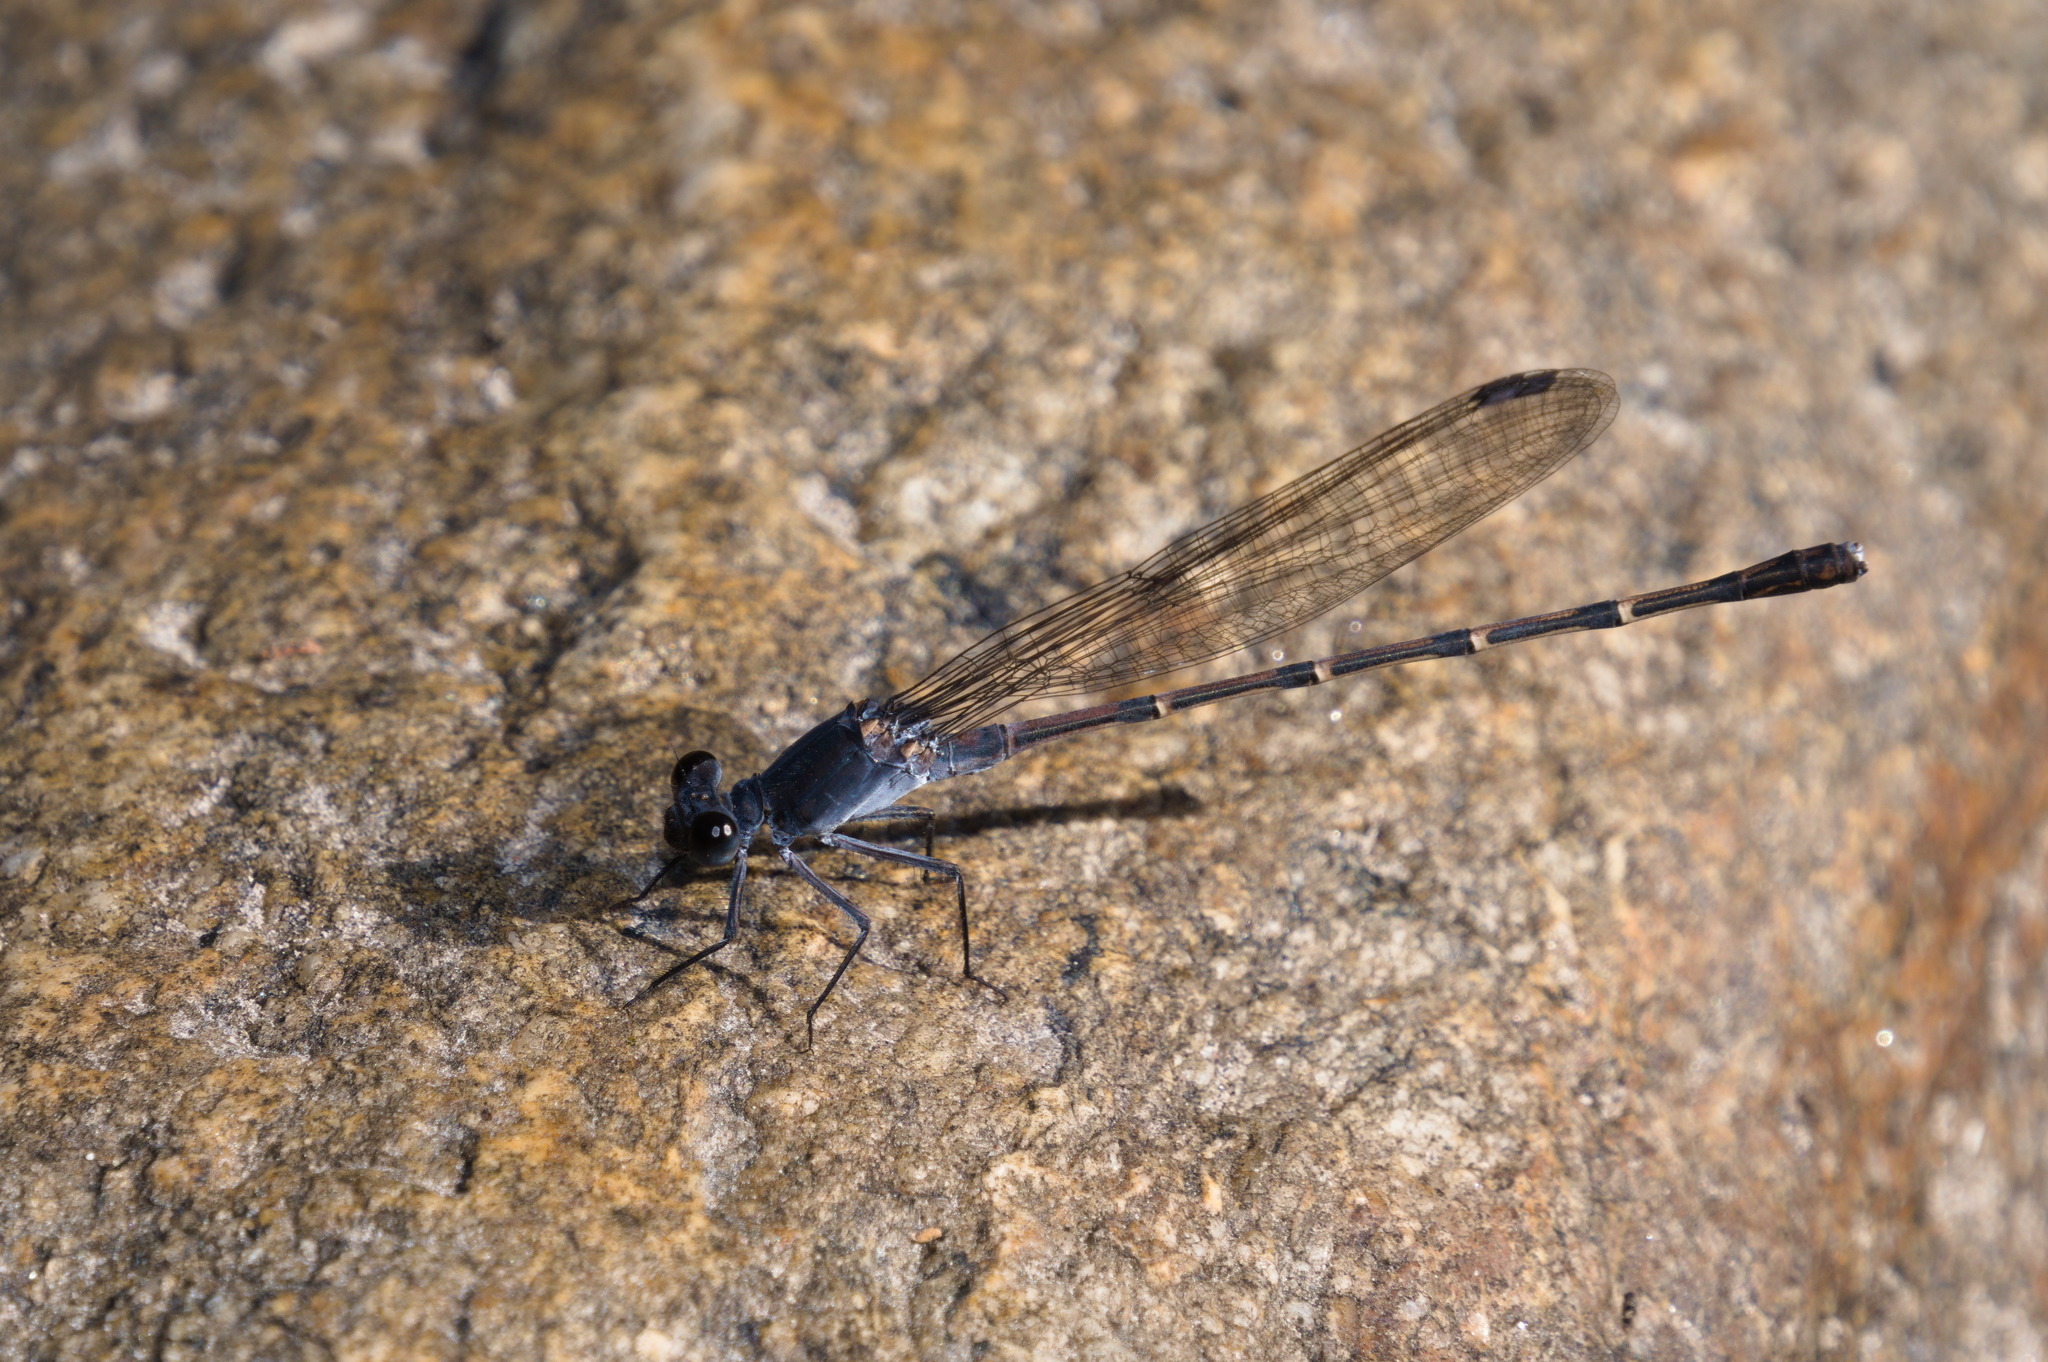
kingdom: Animalia
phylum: Arthropoda
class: Insecta
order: Odonata
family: Coenagrionidae
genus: Argia
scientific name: Argia lugens
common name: Sooty dancer
